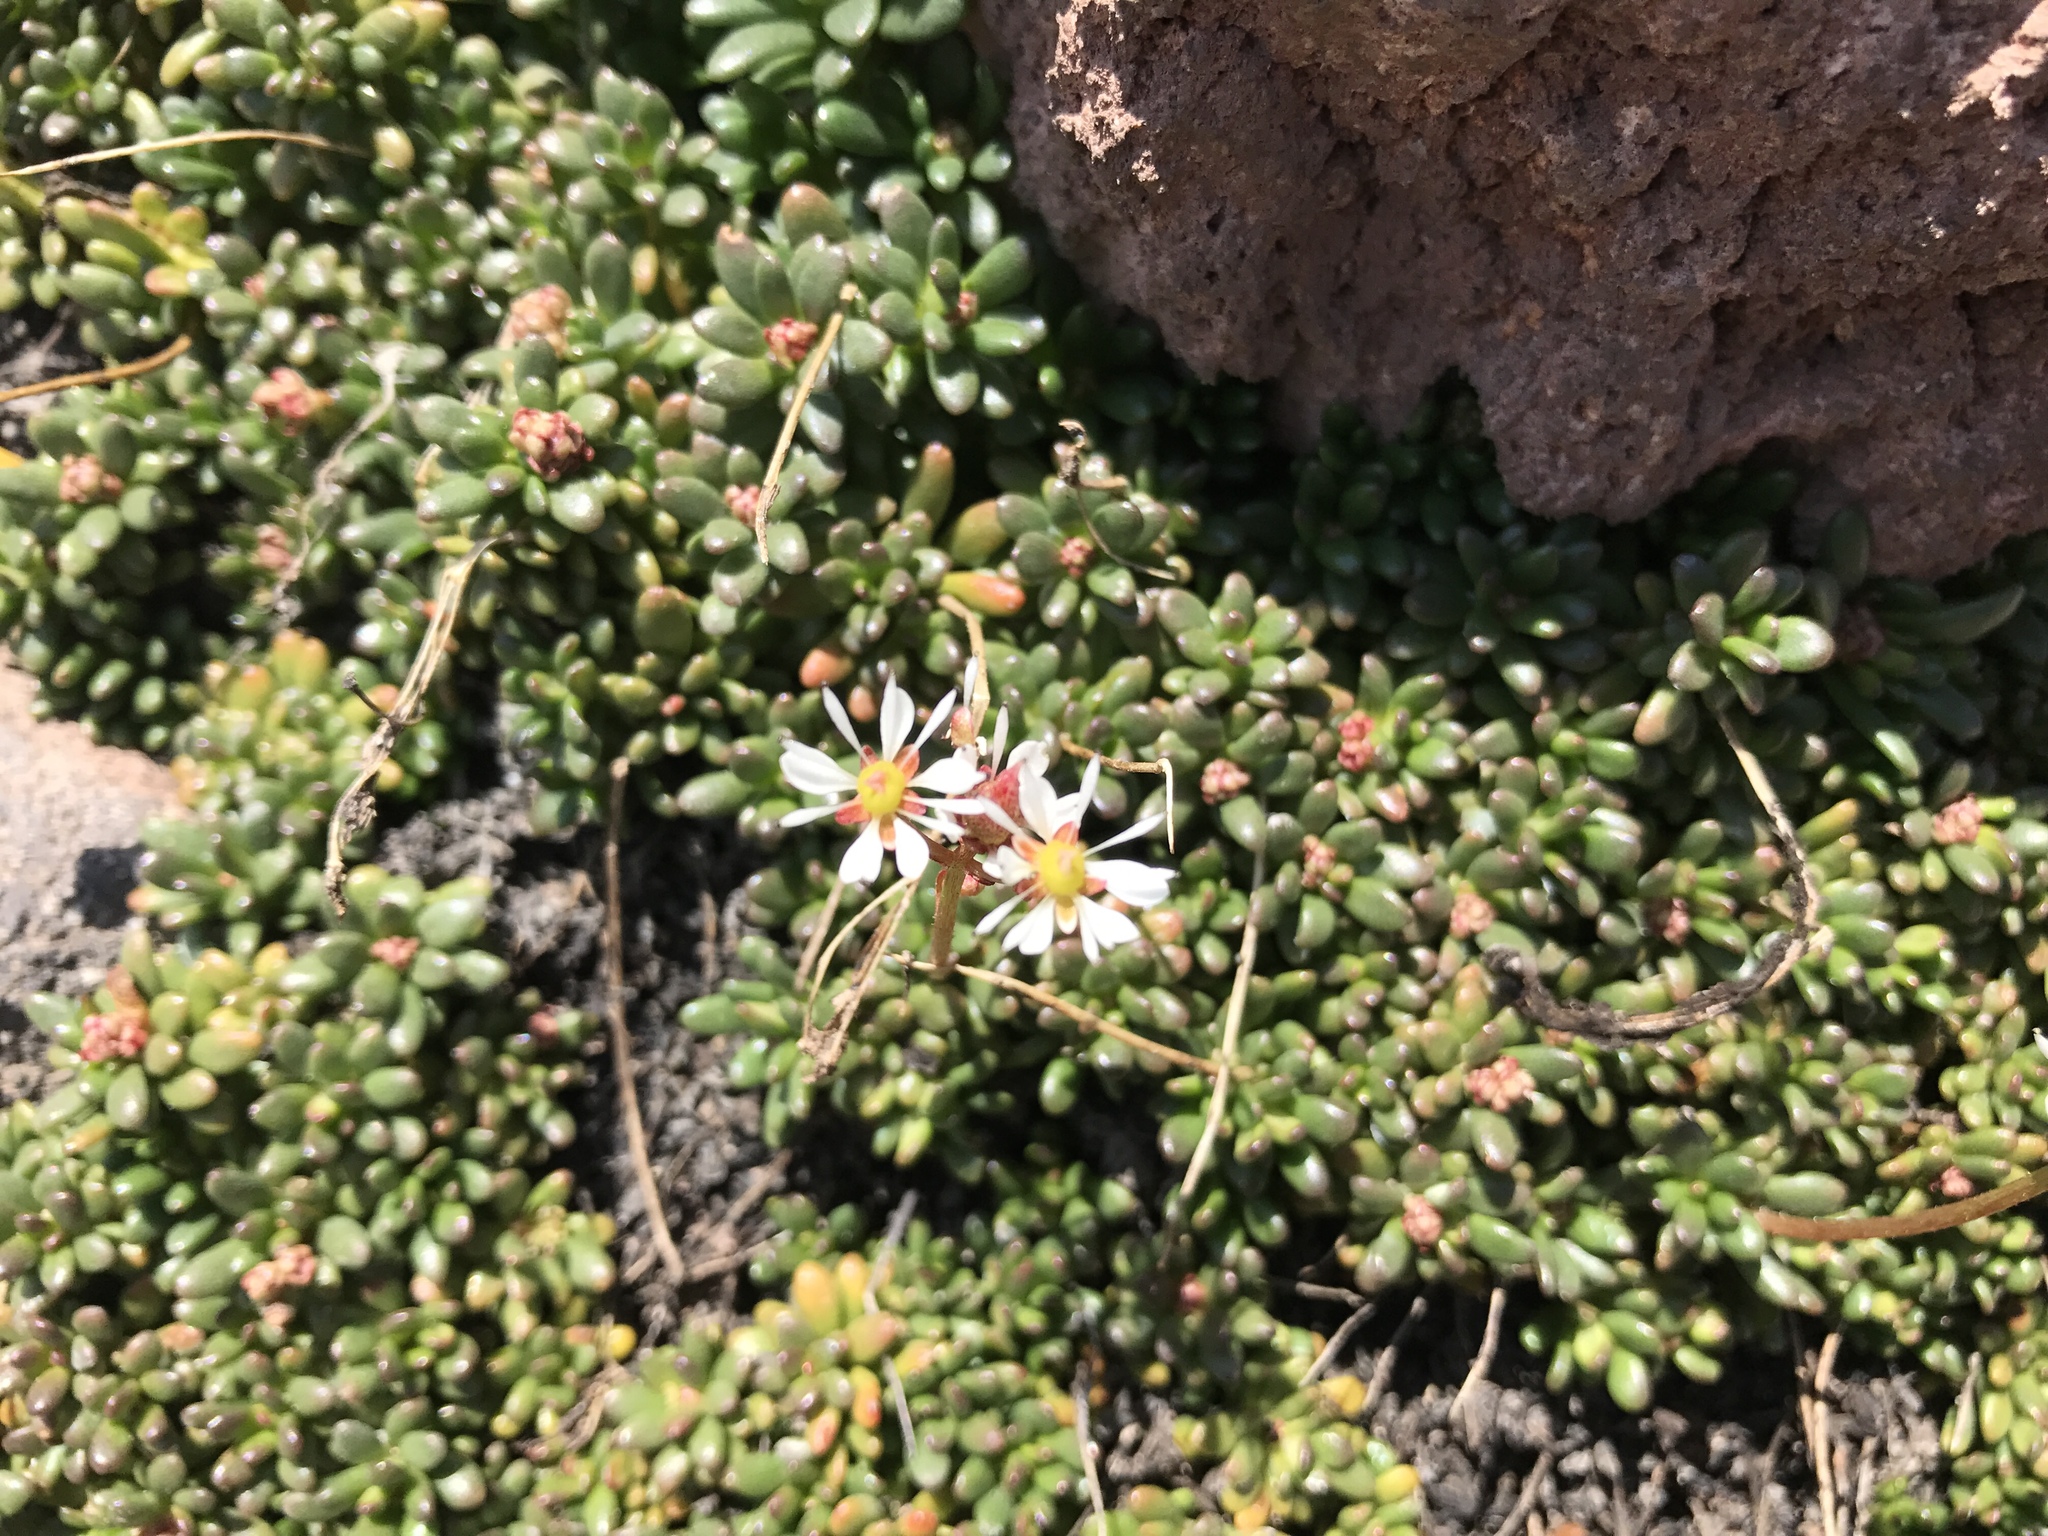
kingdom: Plantae
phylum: Tracheophyta
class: Magnoliopsida
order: Saxifragales
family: Saxifragaceae
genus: Micranthes
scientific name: Micranthes tolmiei
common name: Tolmie's saxifrage
